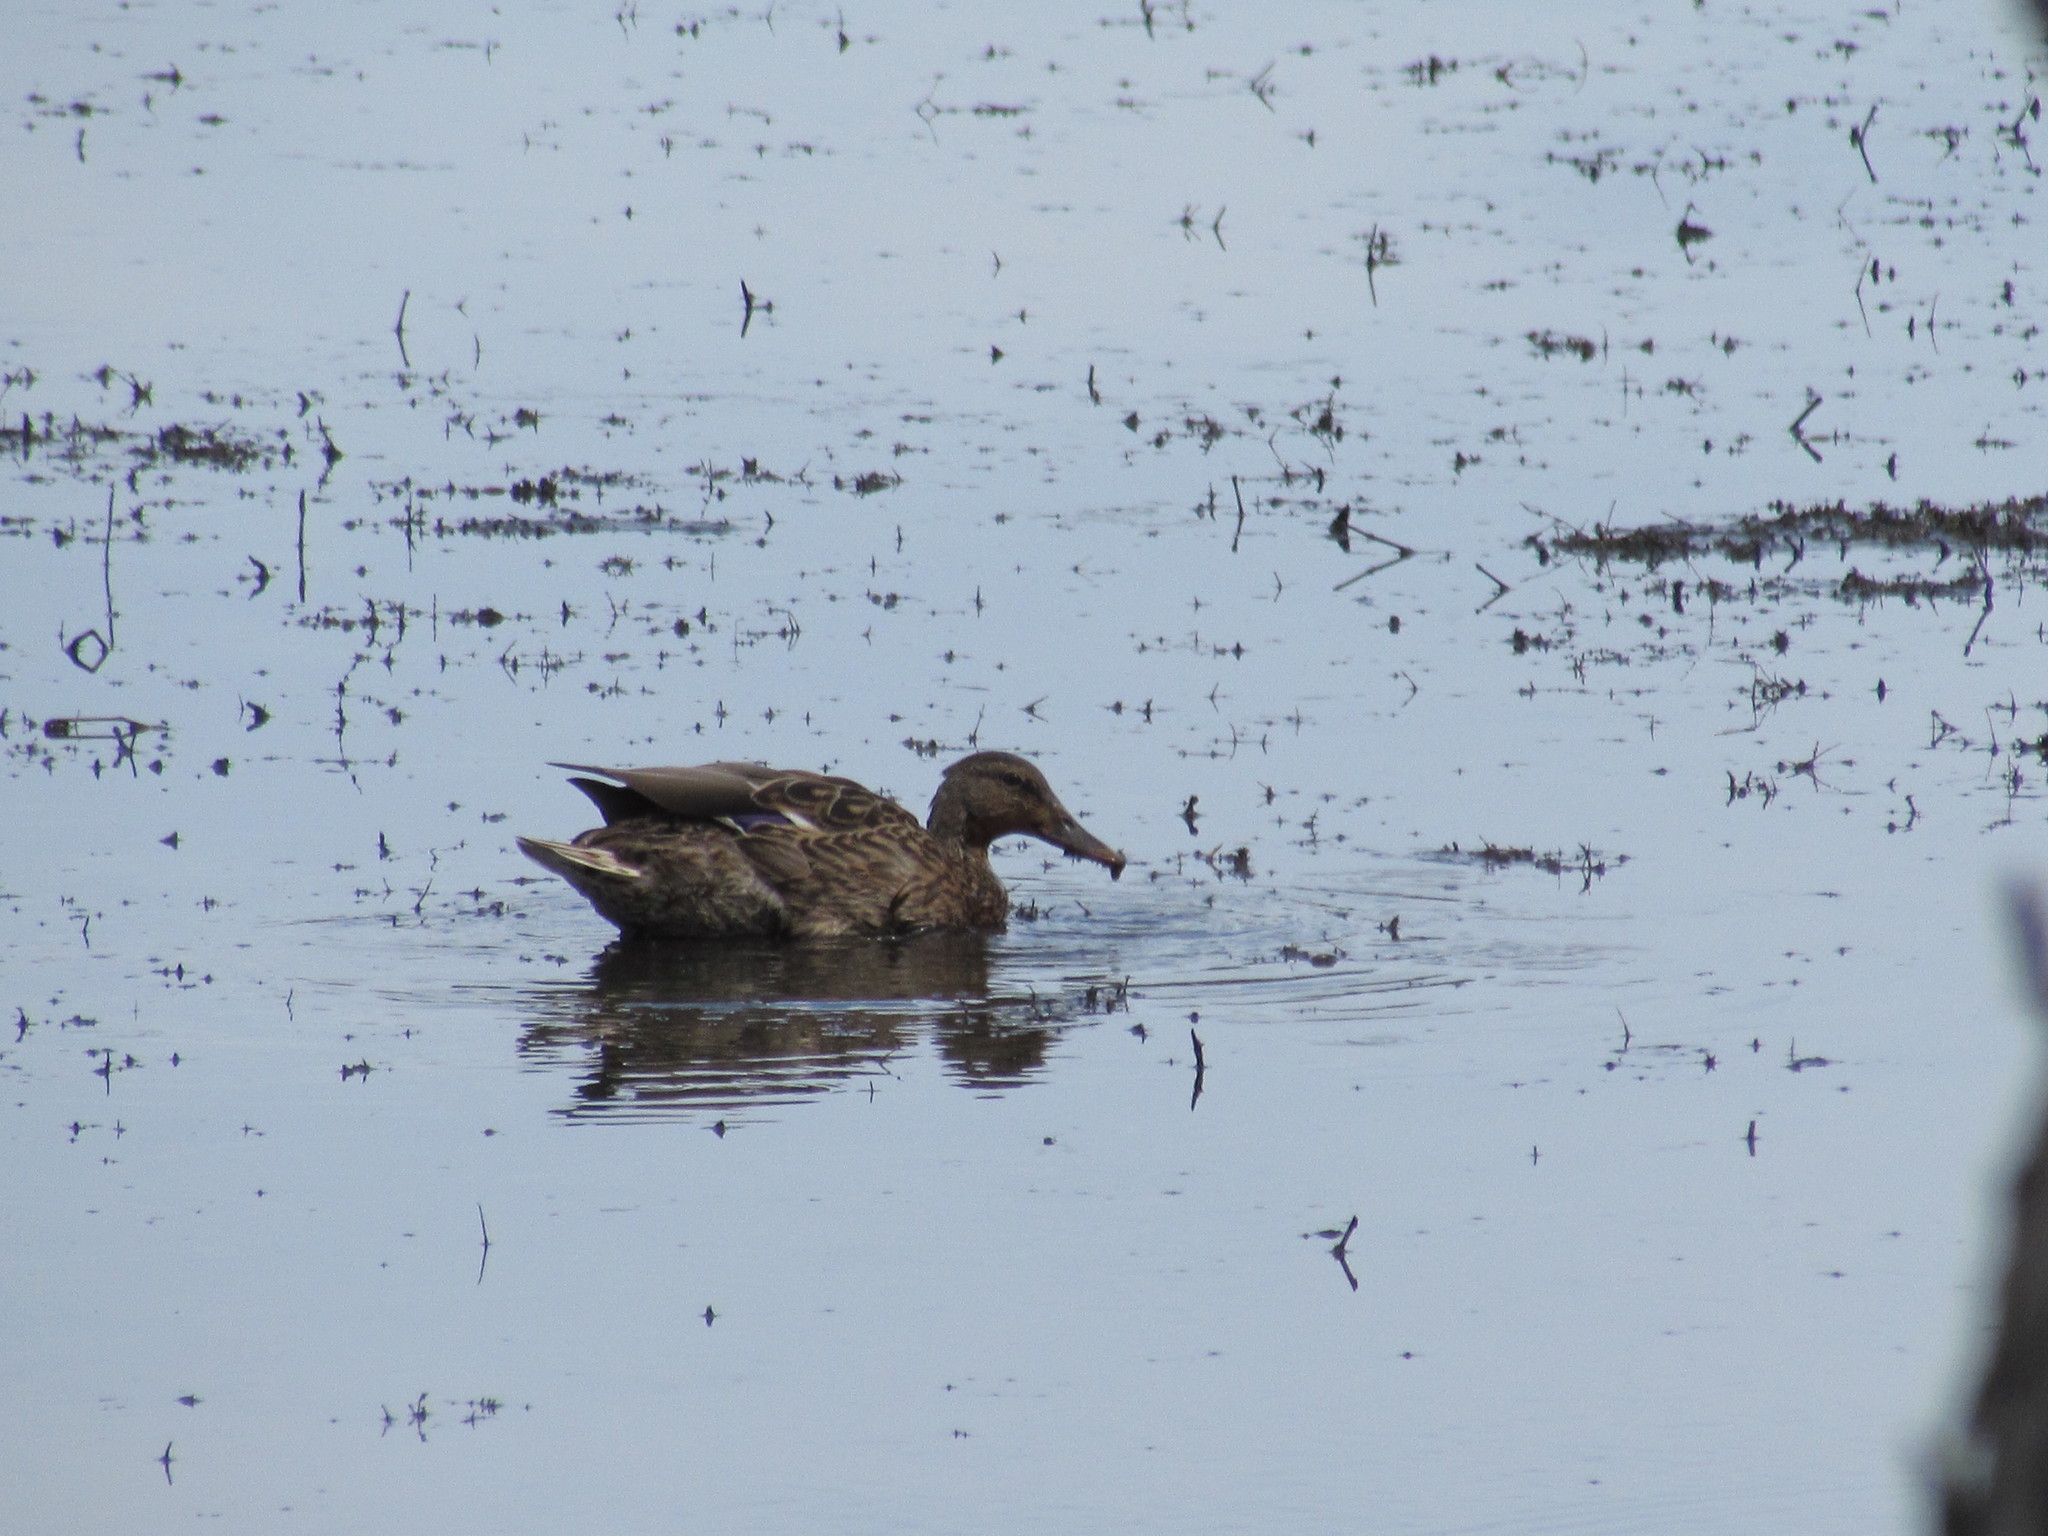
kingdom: Animalia
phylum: Chordata
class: Aves
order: Anseriformes
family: Anatidae
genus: Anas
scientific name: Anas platyrhynchos
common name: Mallard
